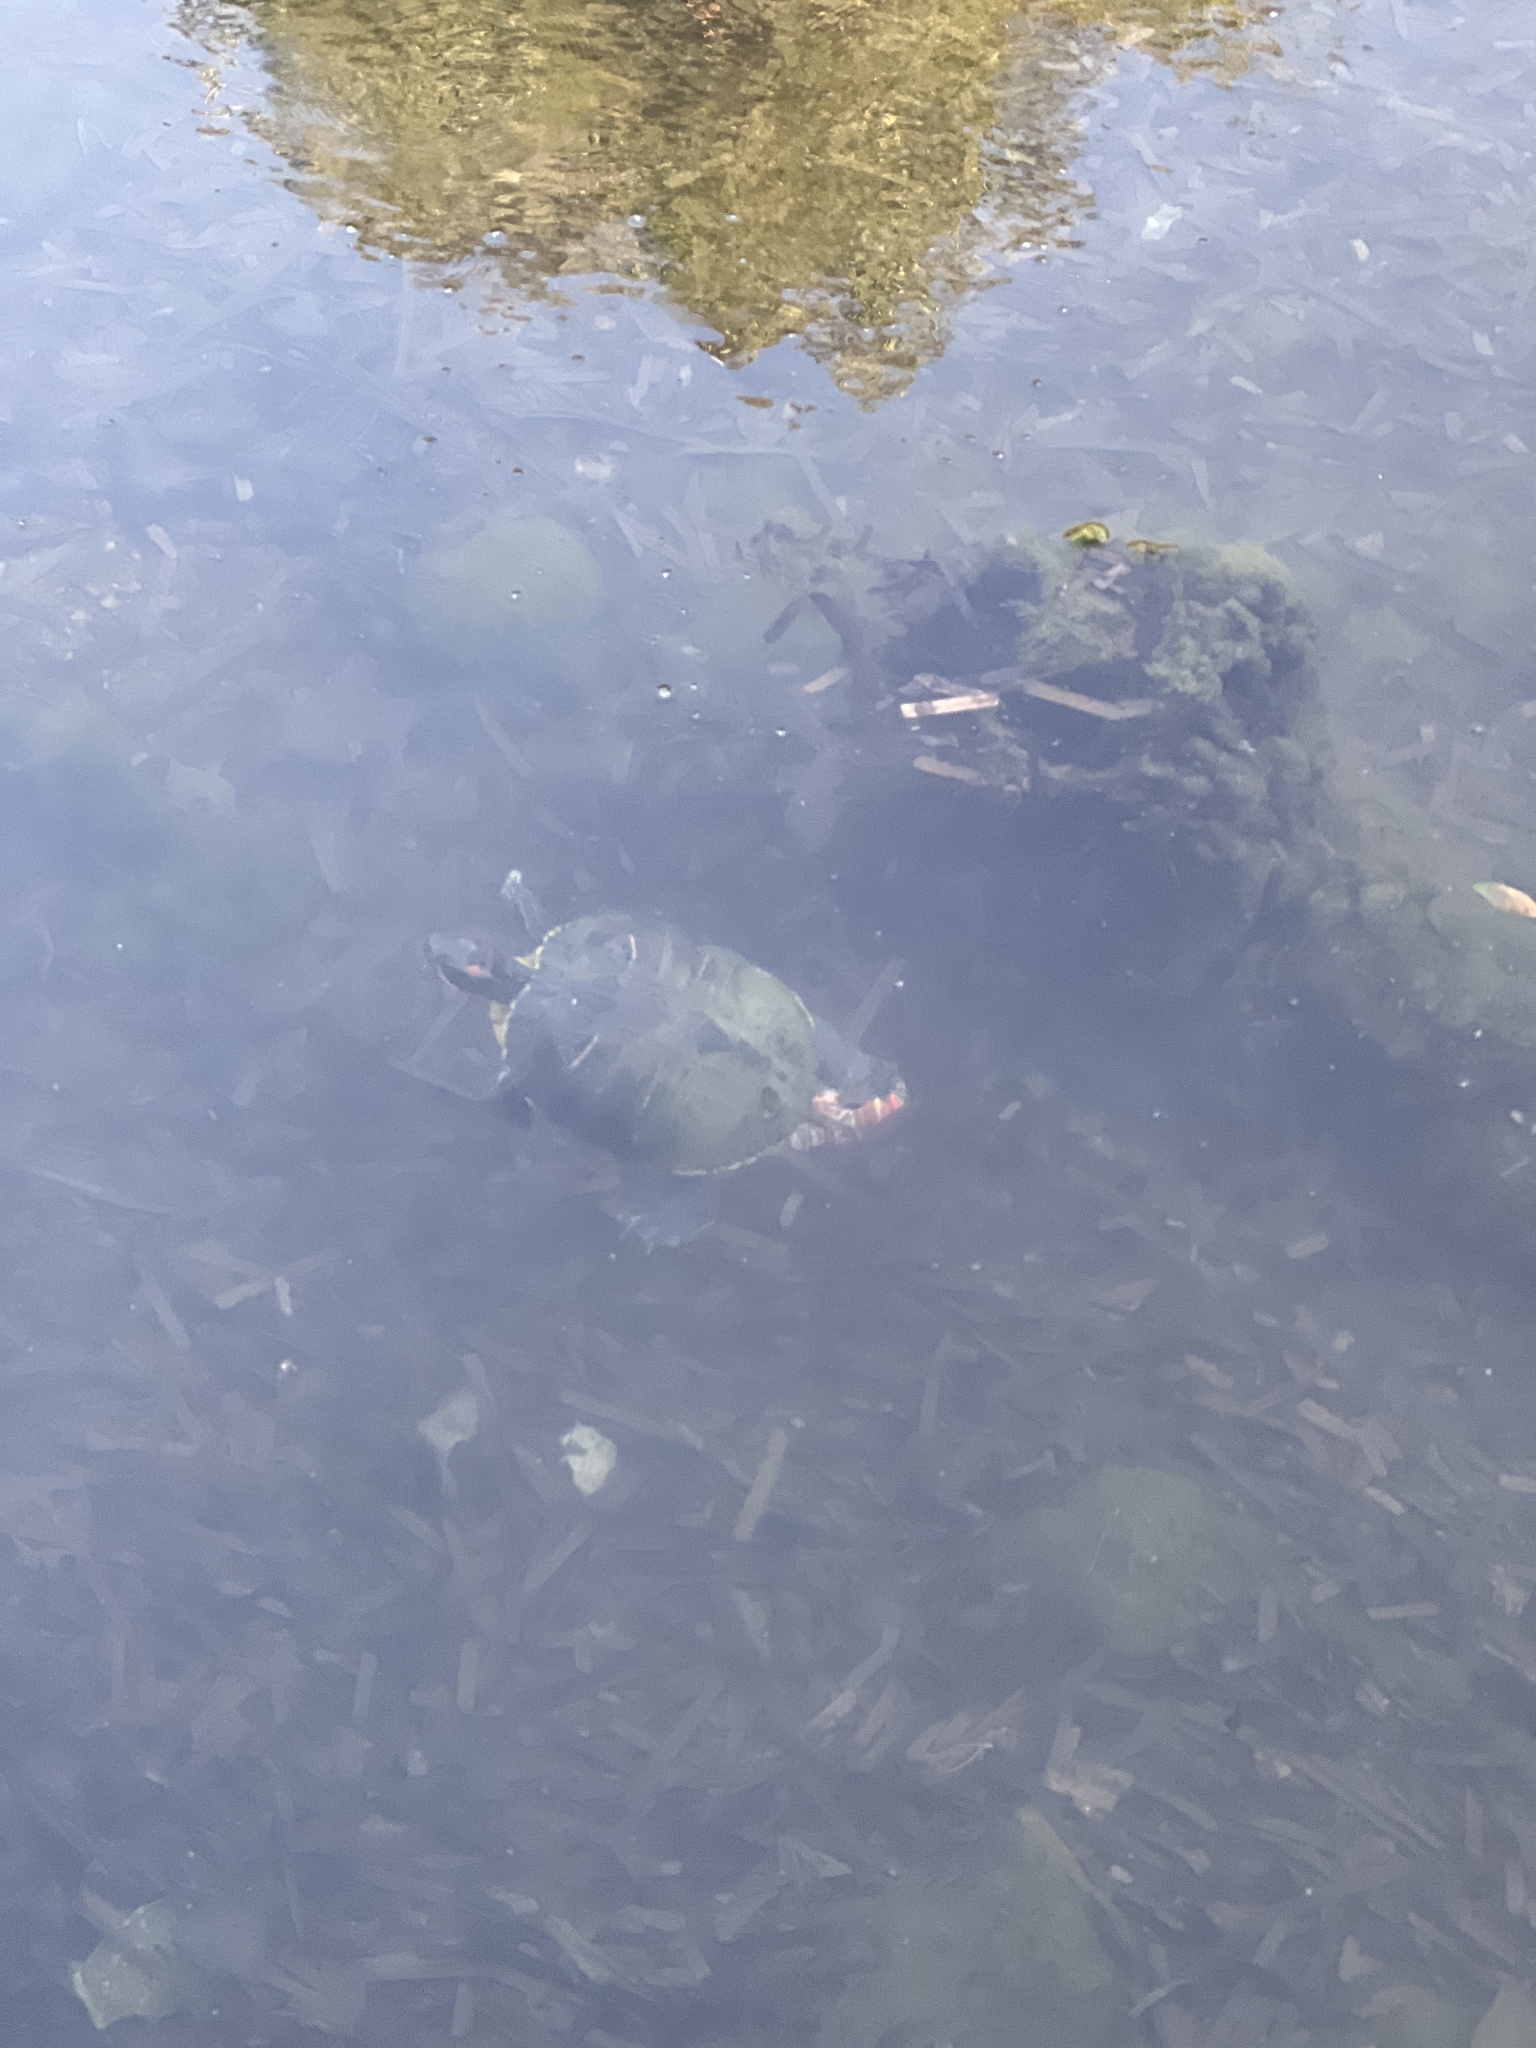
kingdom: Animalia
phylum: Chordata
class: Testudines
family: Emydidae
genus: Trachemys
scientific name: Trachemys scripta
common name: Slider
